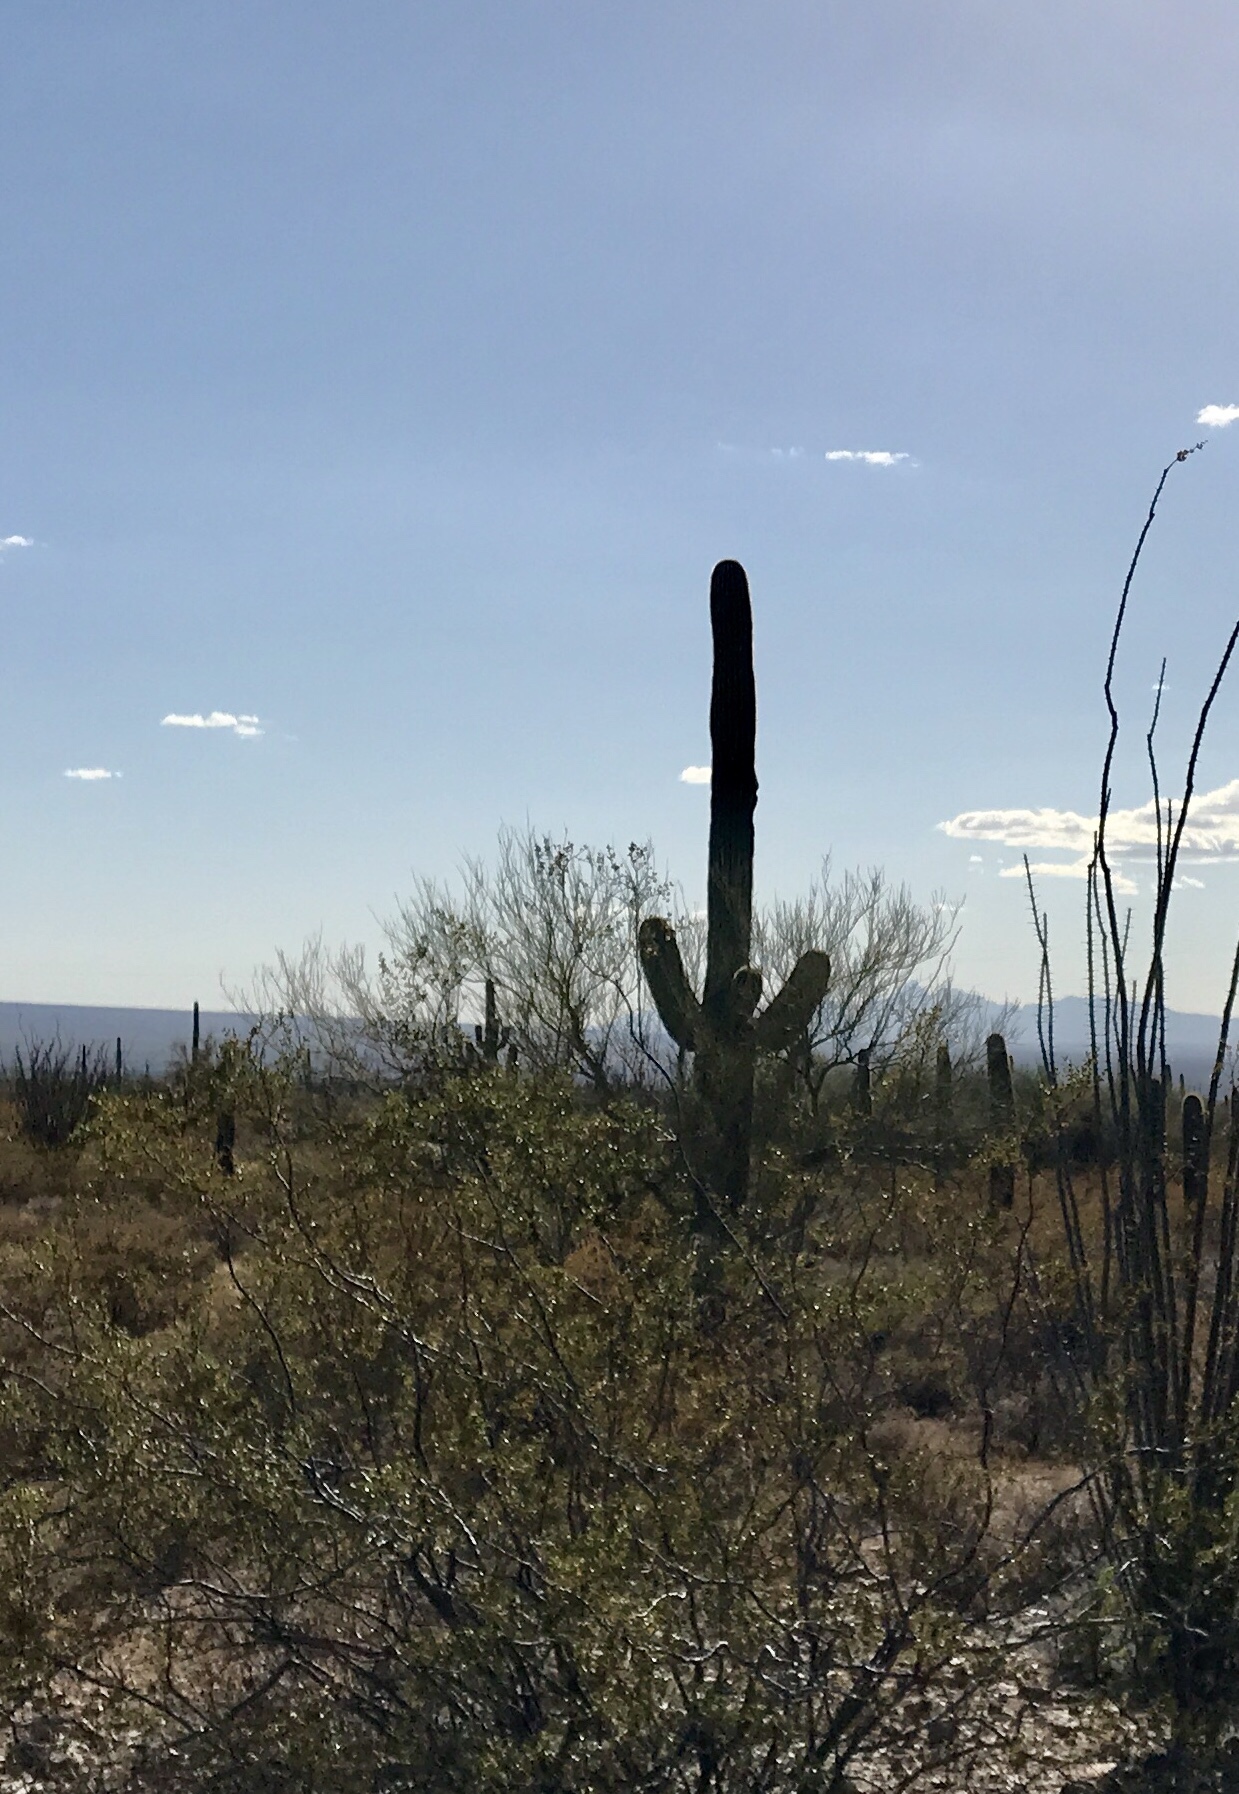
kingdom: Plantae
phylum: Tracheophyta
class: Magnoliopsida
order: Caryophyllales
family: Cactaceae
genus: Carnegiea
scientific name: Carnegiea gigantea
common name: Saguaro
